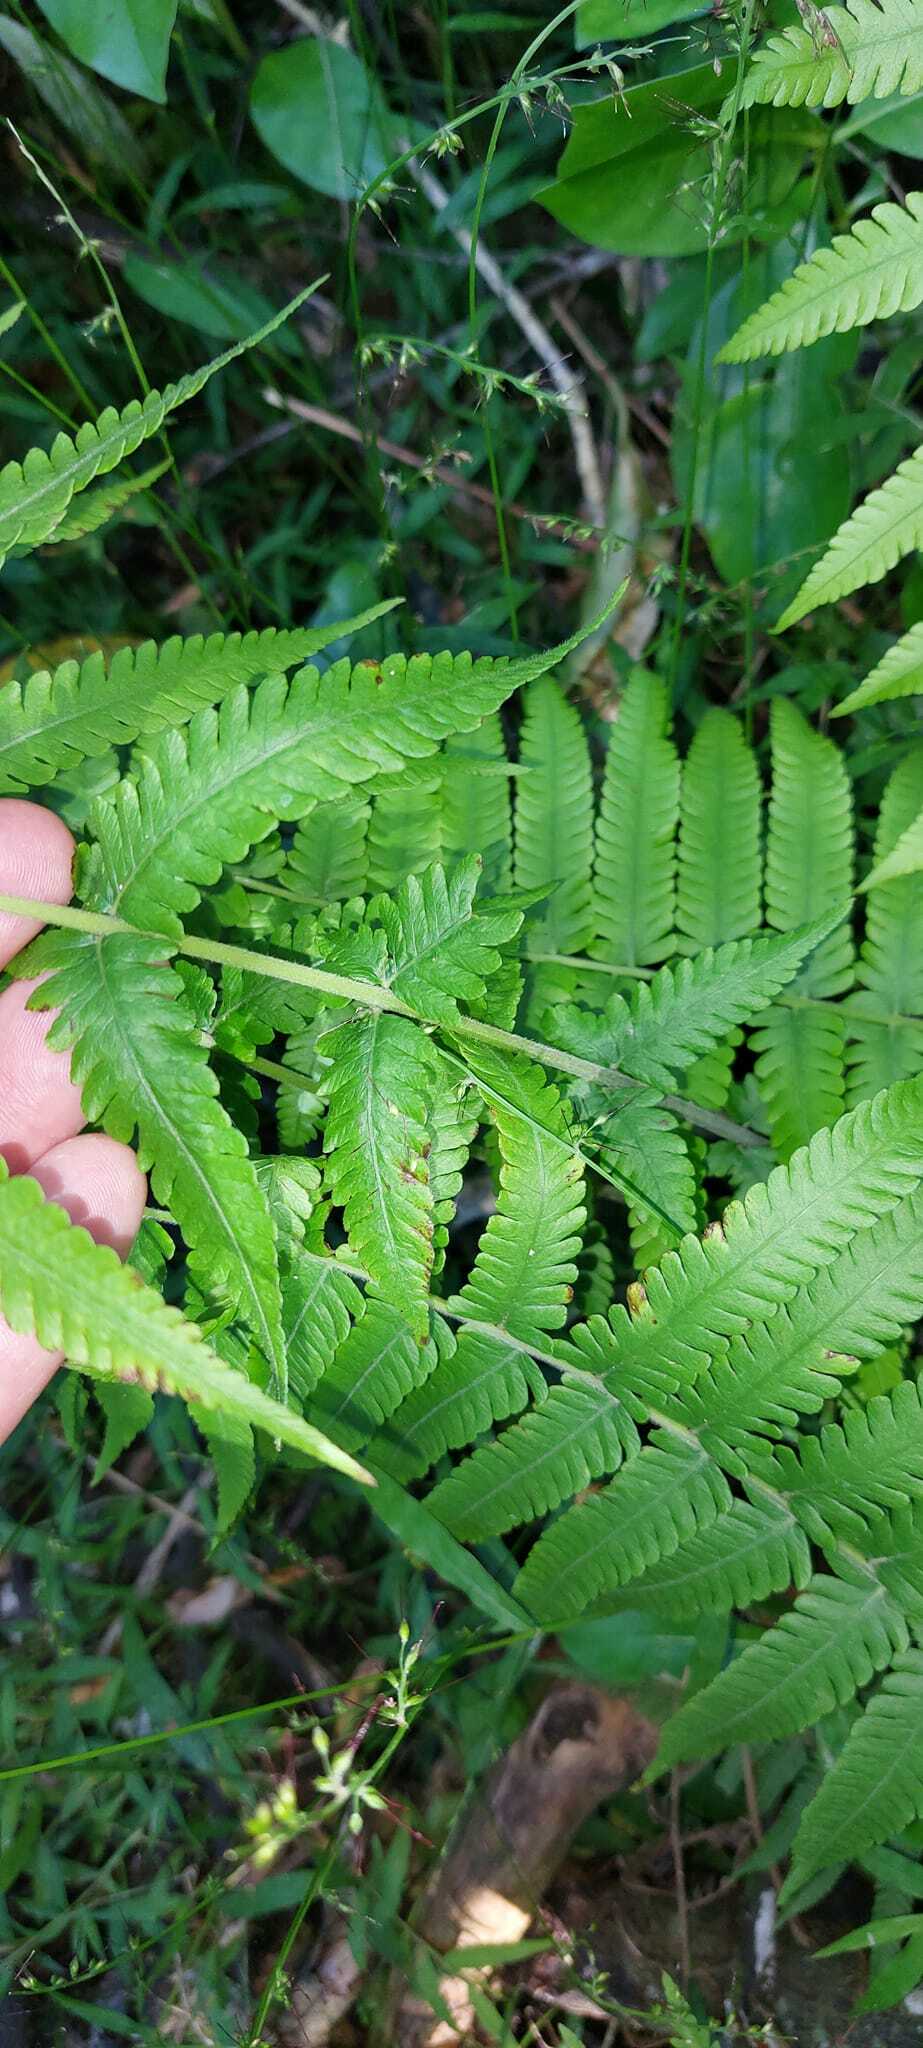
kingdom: Plantae
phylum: Tracheophyta
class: Polypodiopsida
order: Polypodiales
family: Thelypteridaceae
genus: Christella
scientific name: Christella dentata
